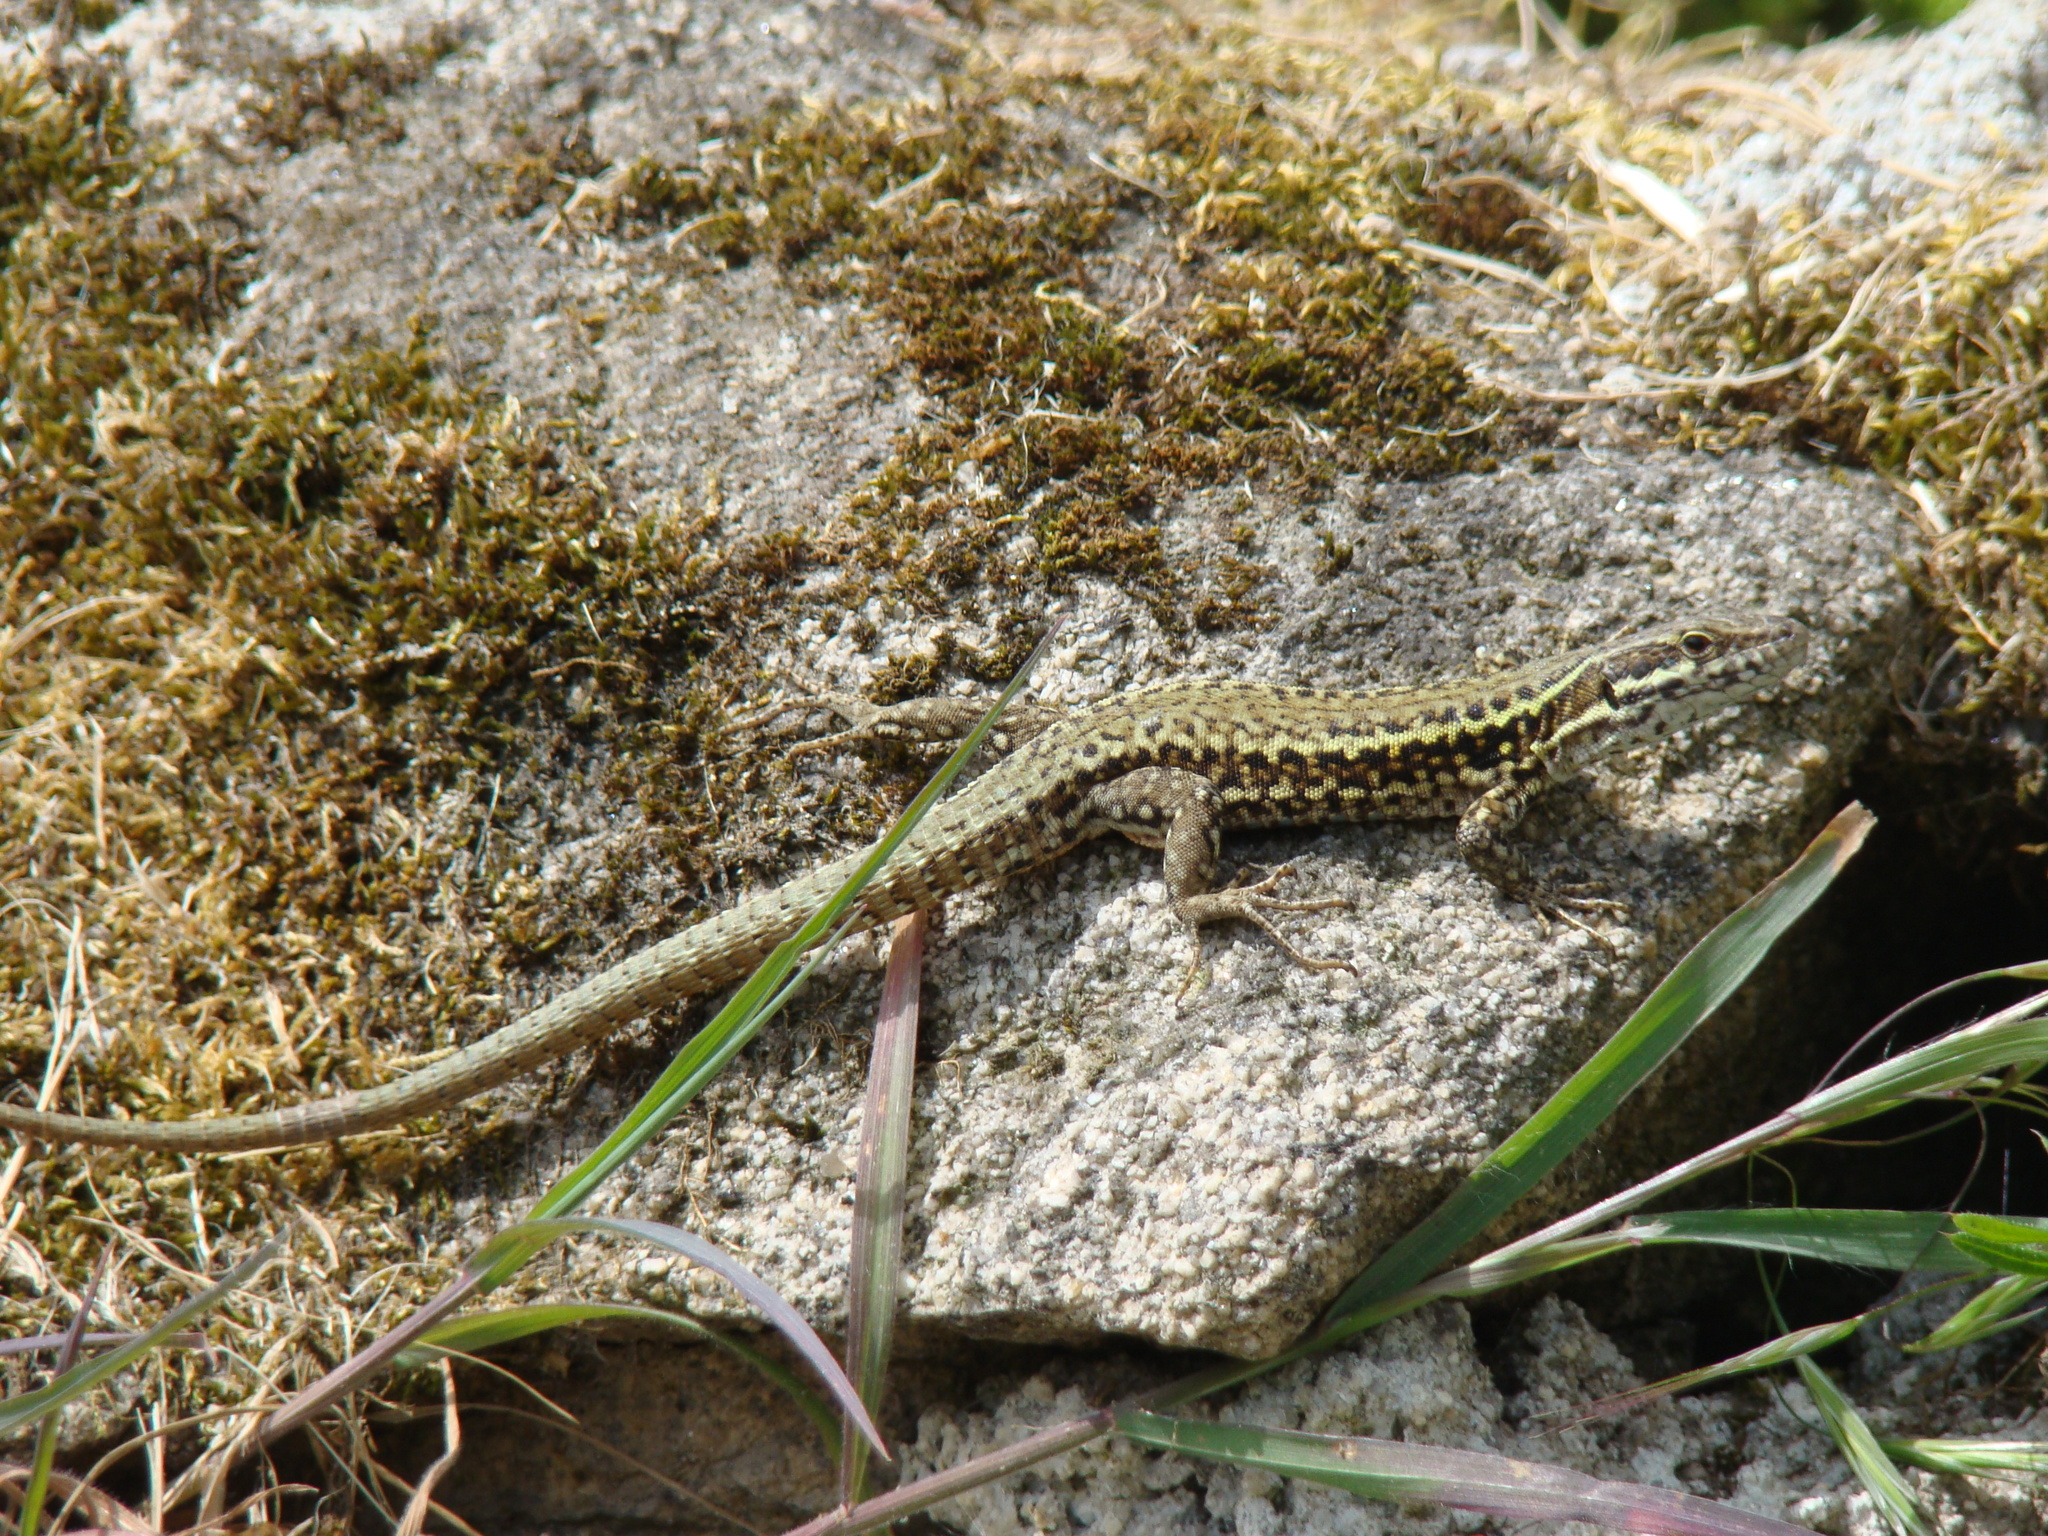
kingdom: Animalia
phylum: Chordata
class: Squamata
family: Lacertidae
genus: Podarcis
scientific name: Podarcis muralis
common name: Common wall lizard
